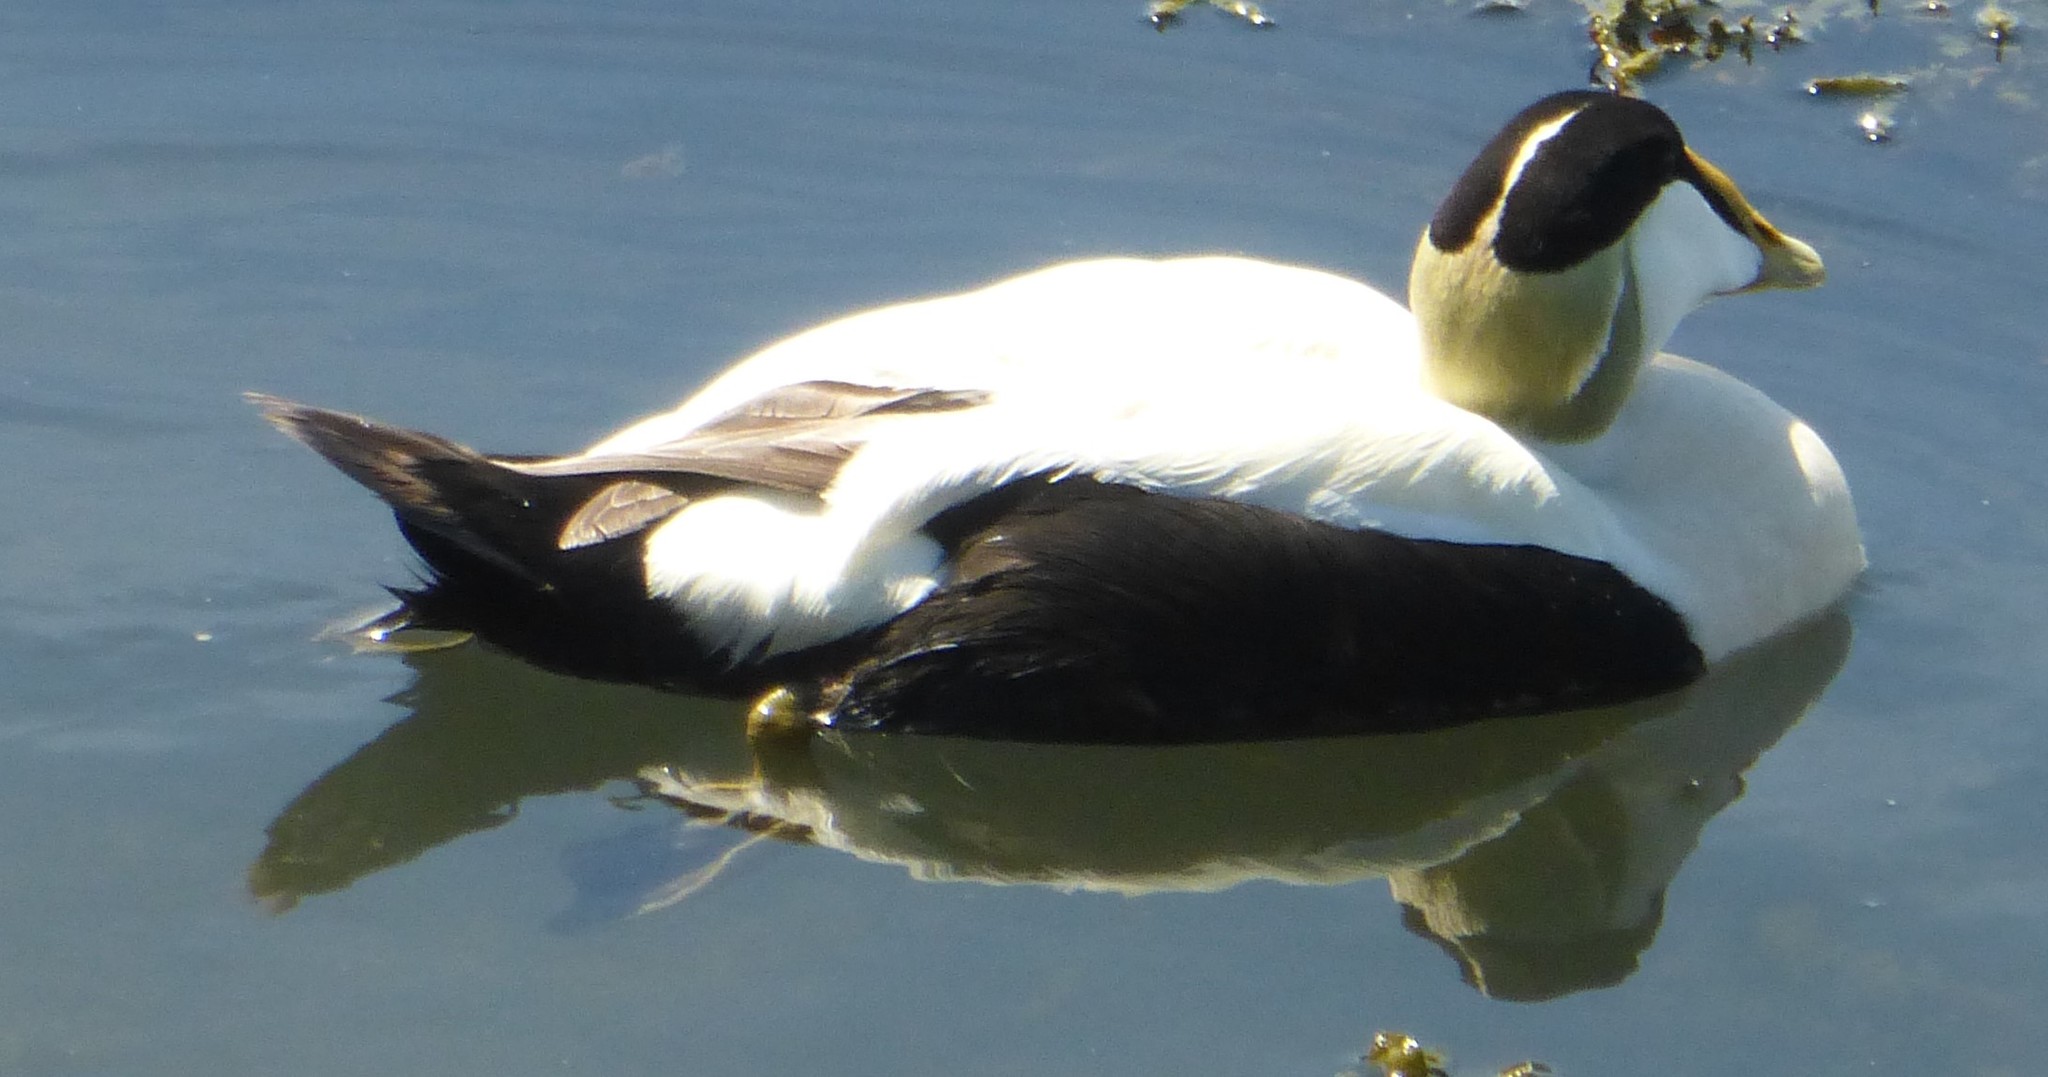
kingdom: Animalia
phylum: Chordata
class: Aves
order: Anseriformes
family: Anatidae
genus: Somateria
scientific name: Somateria mollissima
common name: Common eider
